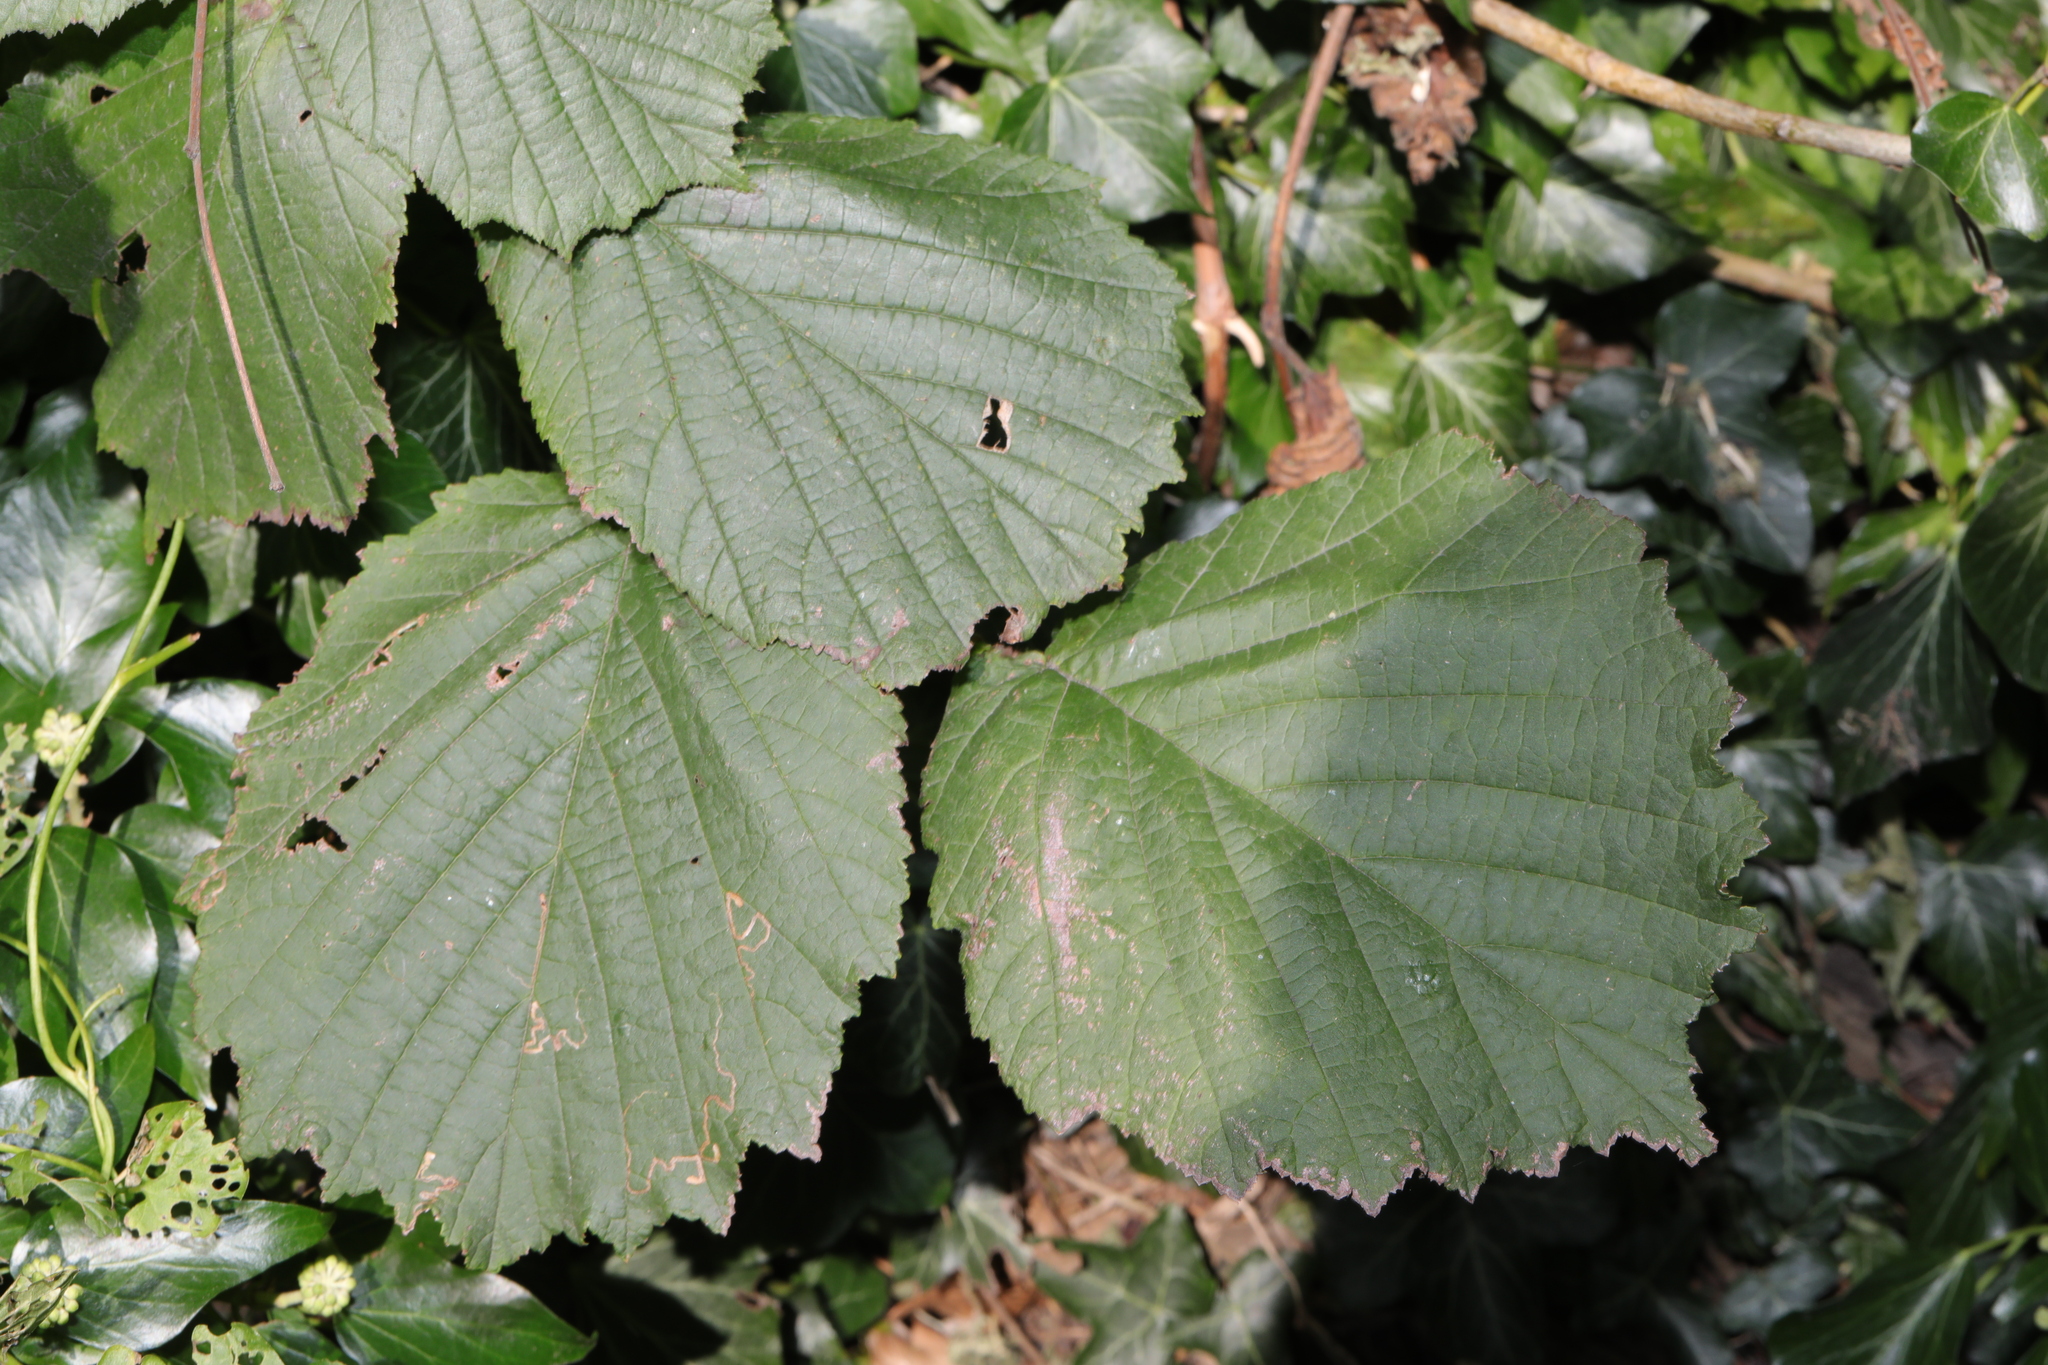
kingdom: Plantae
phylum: Tracheophyta
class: Magnoliopsida
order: Fagales
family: Betulaceae
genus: Corylus
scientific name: Corylus avellana
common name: European hazel
